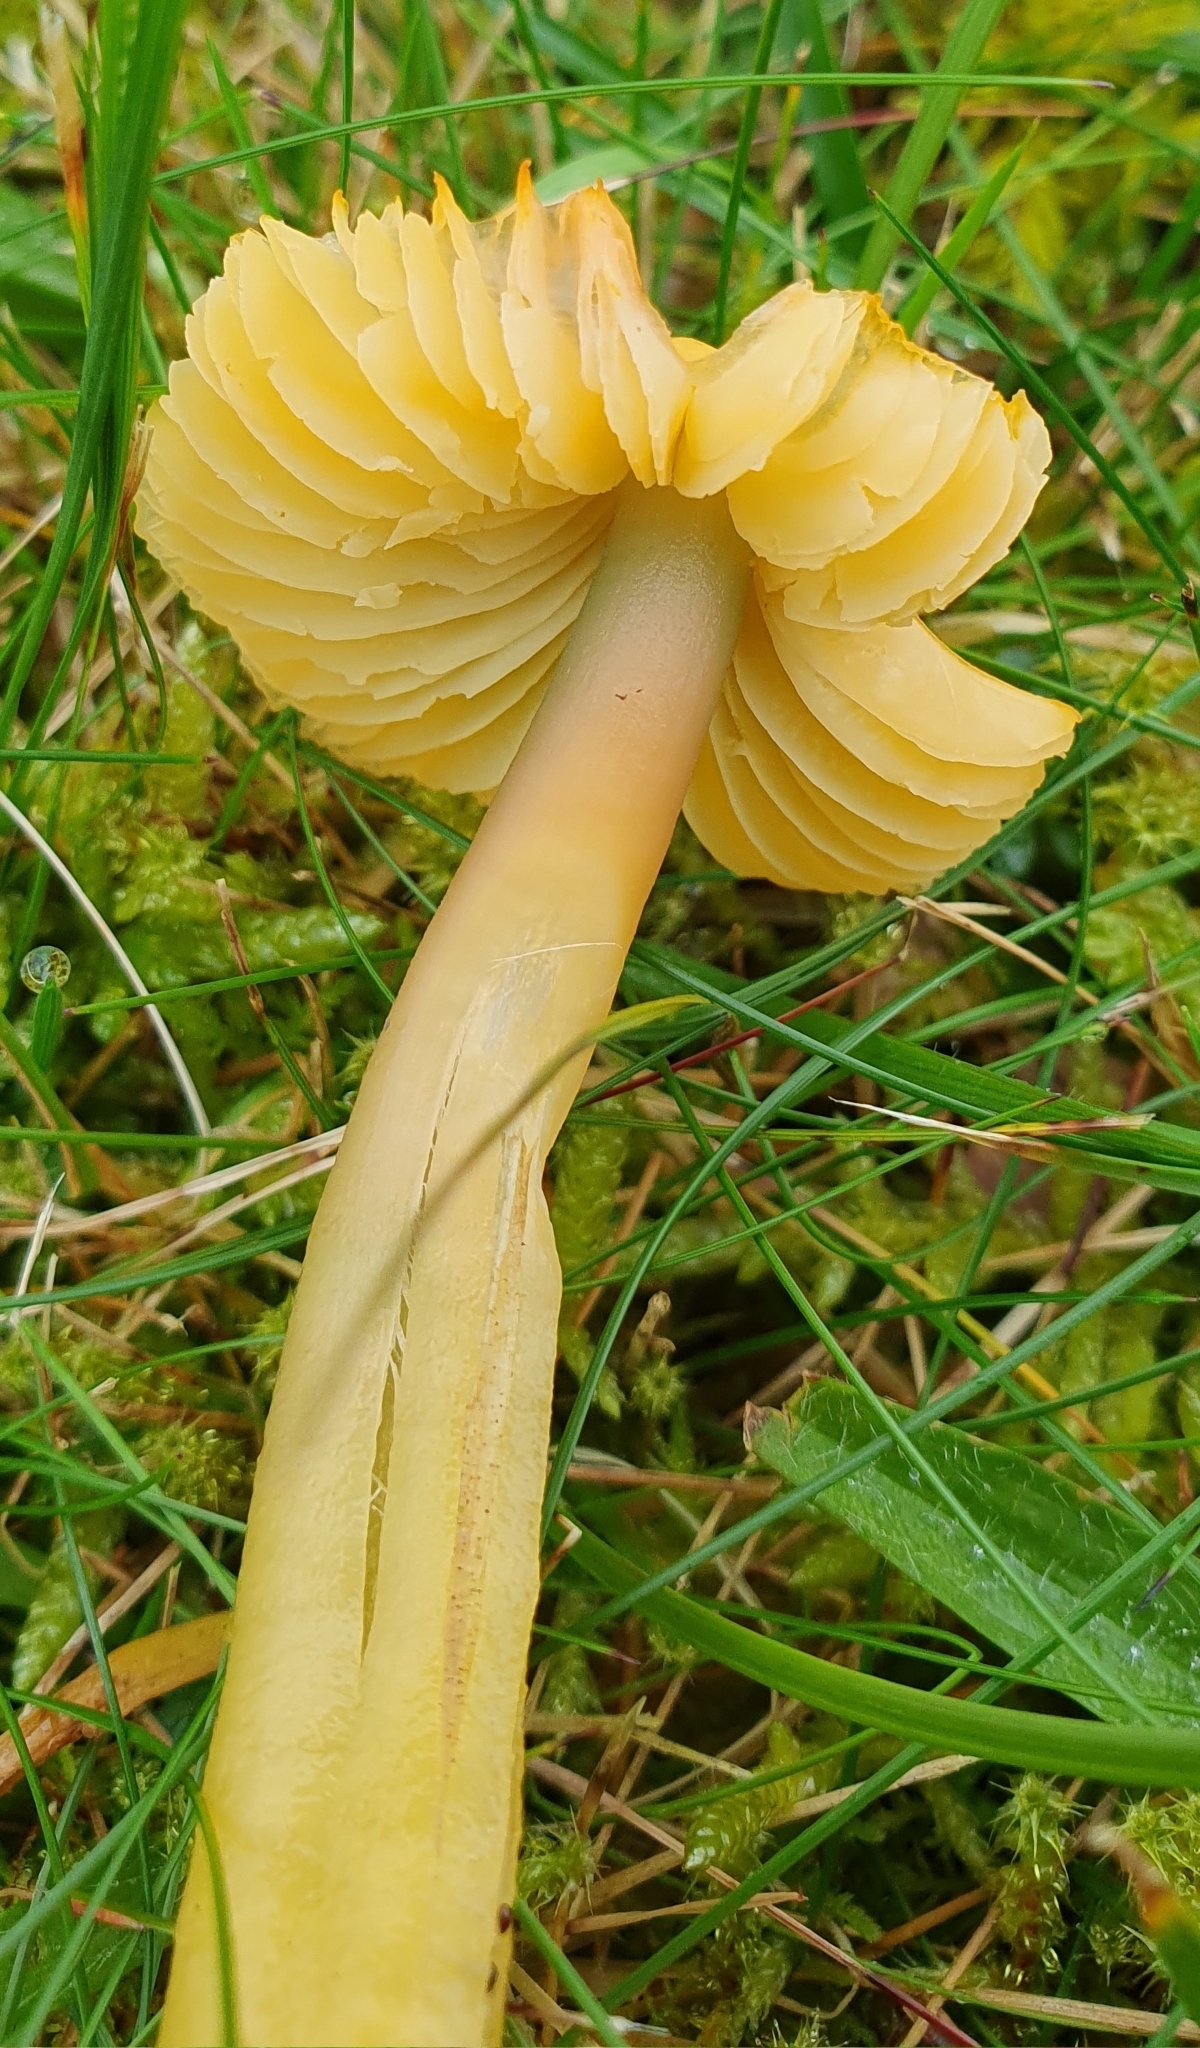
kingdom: Fungi
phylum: Basidiomycota
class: Agaricomycetes
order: Agaricales
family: Hygrophoraceae
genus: Gliophorus
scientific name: Gliophorus psittacinus
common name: Parrot wax-cap
